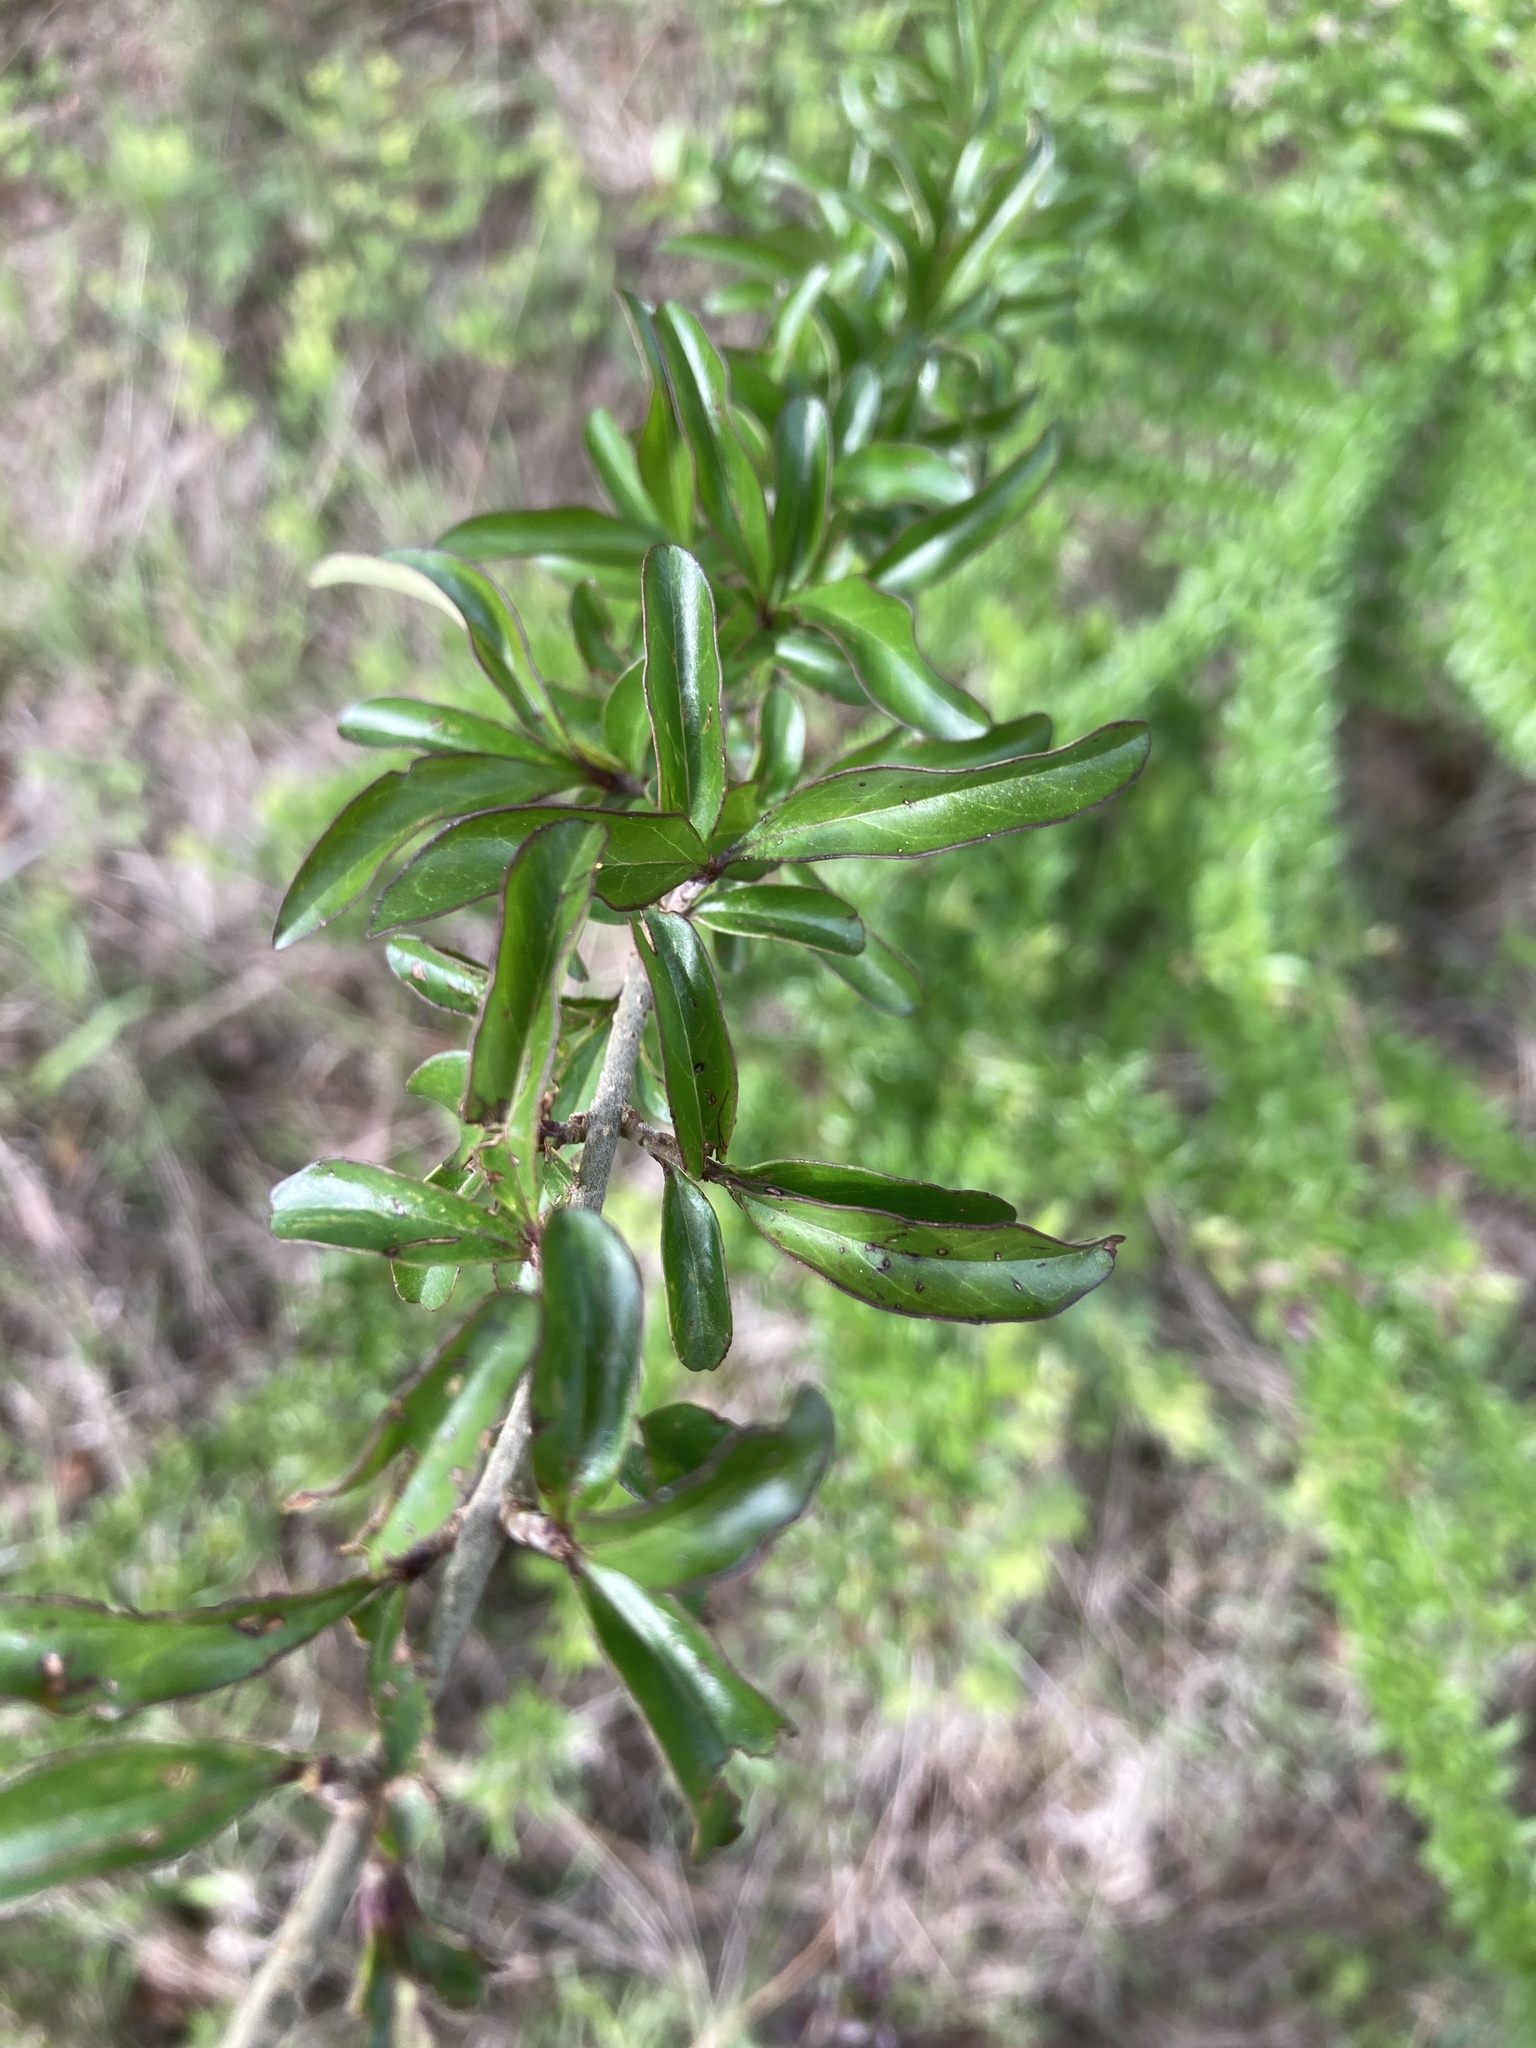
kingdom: Plantae
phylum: Tracheophyta
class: Magnoliopsida
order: Lamiales
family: Oleaceae
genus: Ligustrum
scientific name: Ligustrum quihoui
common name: Waxyleaf privet
